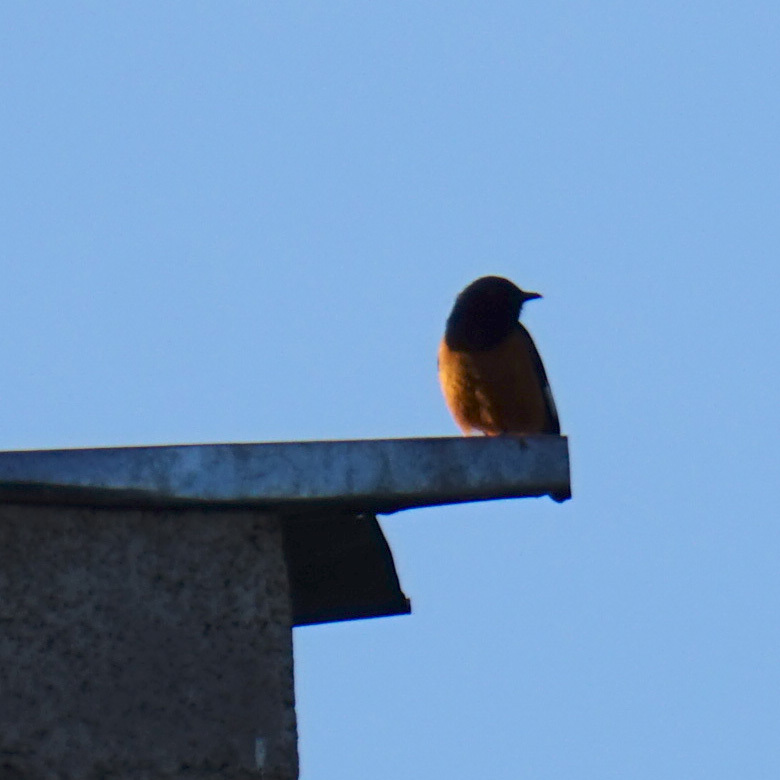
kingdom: Animalia
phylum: Chordata
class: Aves
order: Passeriformes
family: Muscicapidae
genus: Monticola
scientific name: Monticola semirufus
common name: White-winged cliff-chat
